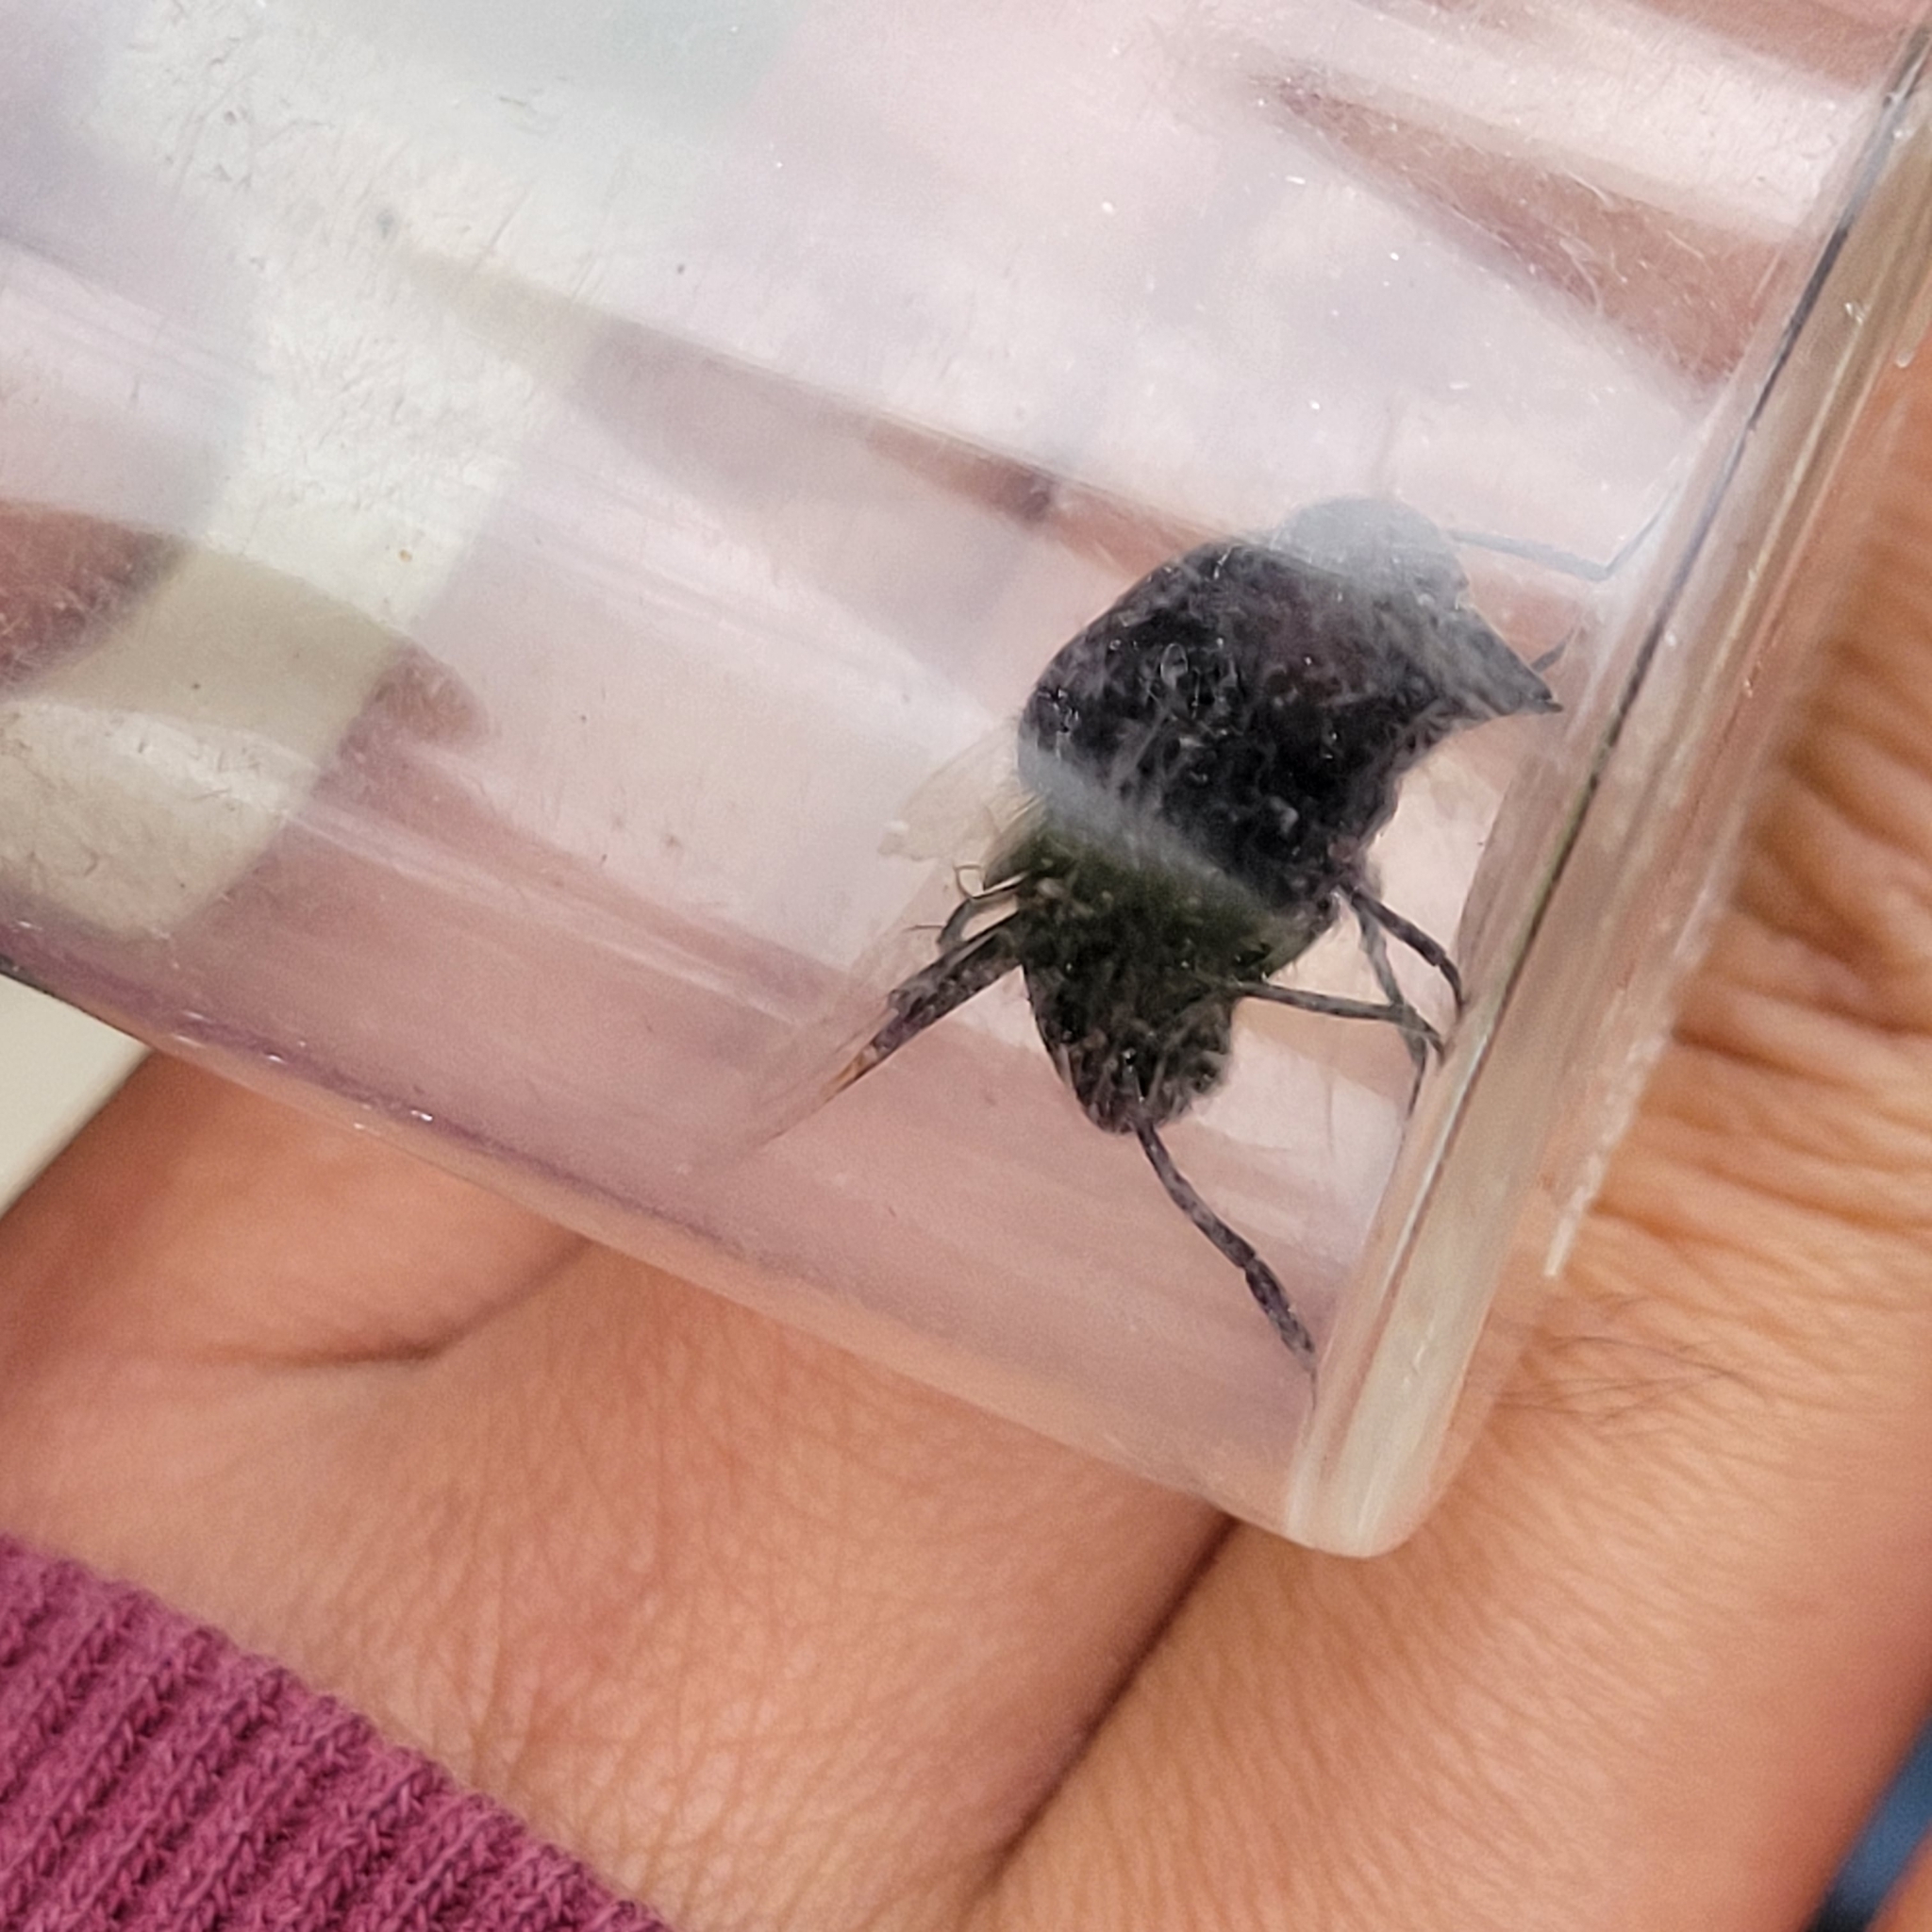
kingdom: Animalia
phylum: Arthropoda
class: Insecta
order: Diptera
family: Syrphidae
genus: Copestylum
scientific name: Copestylum mexicanum
